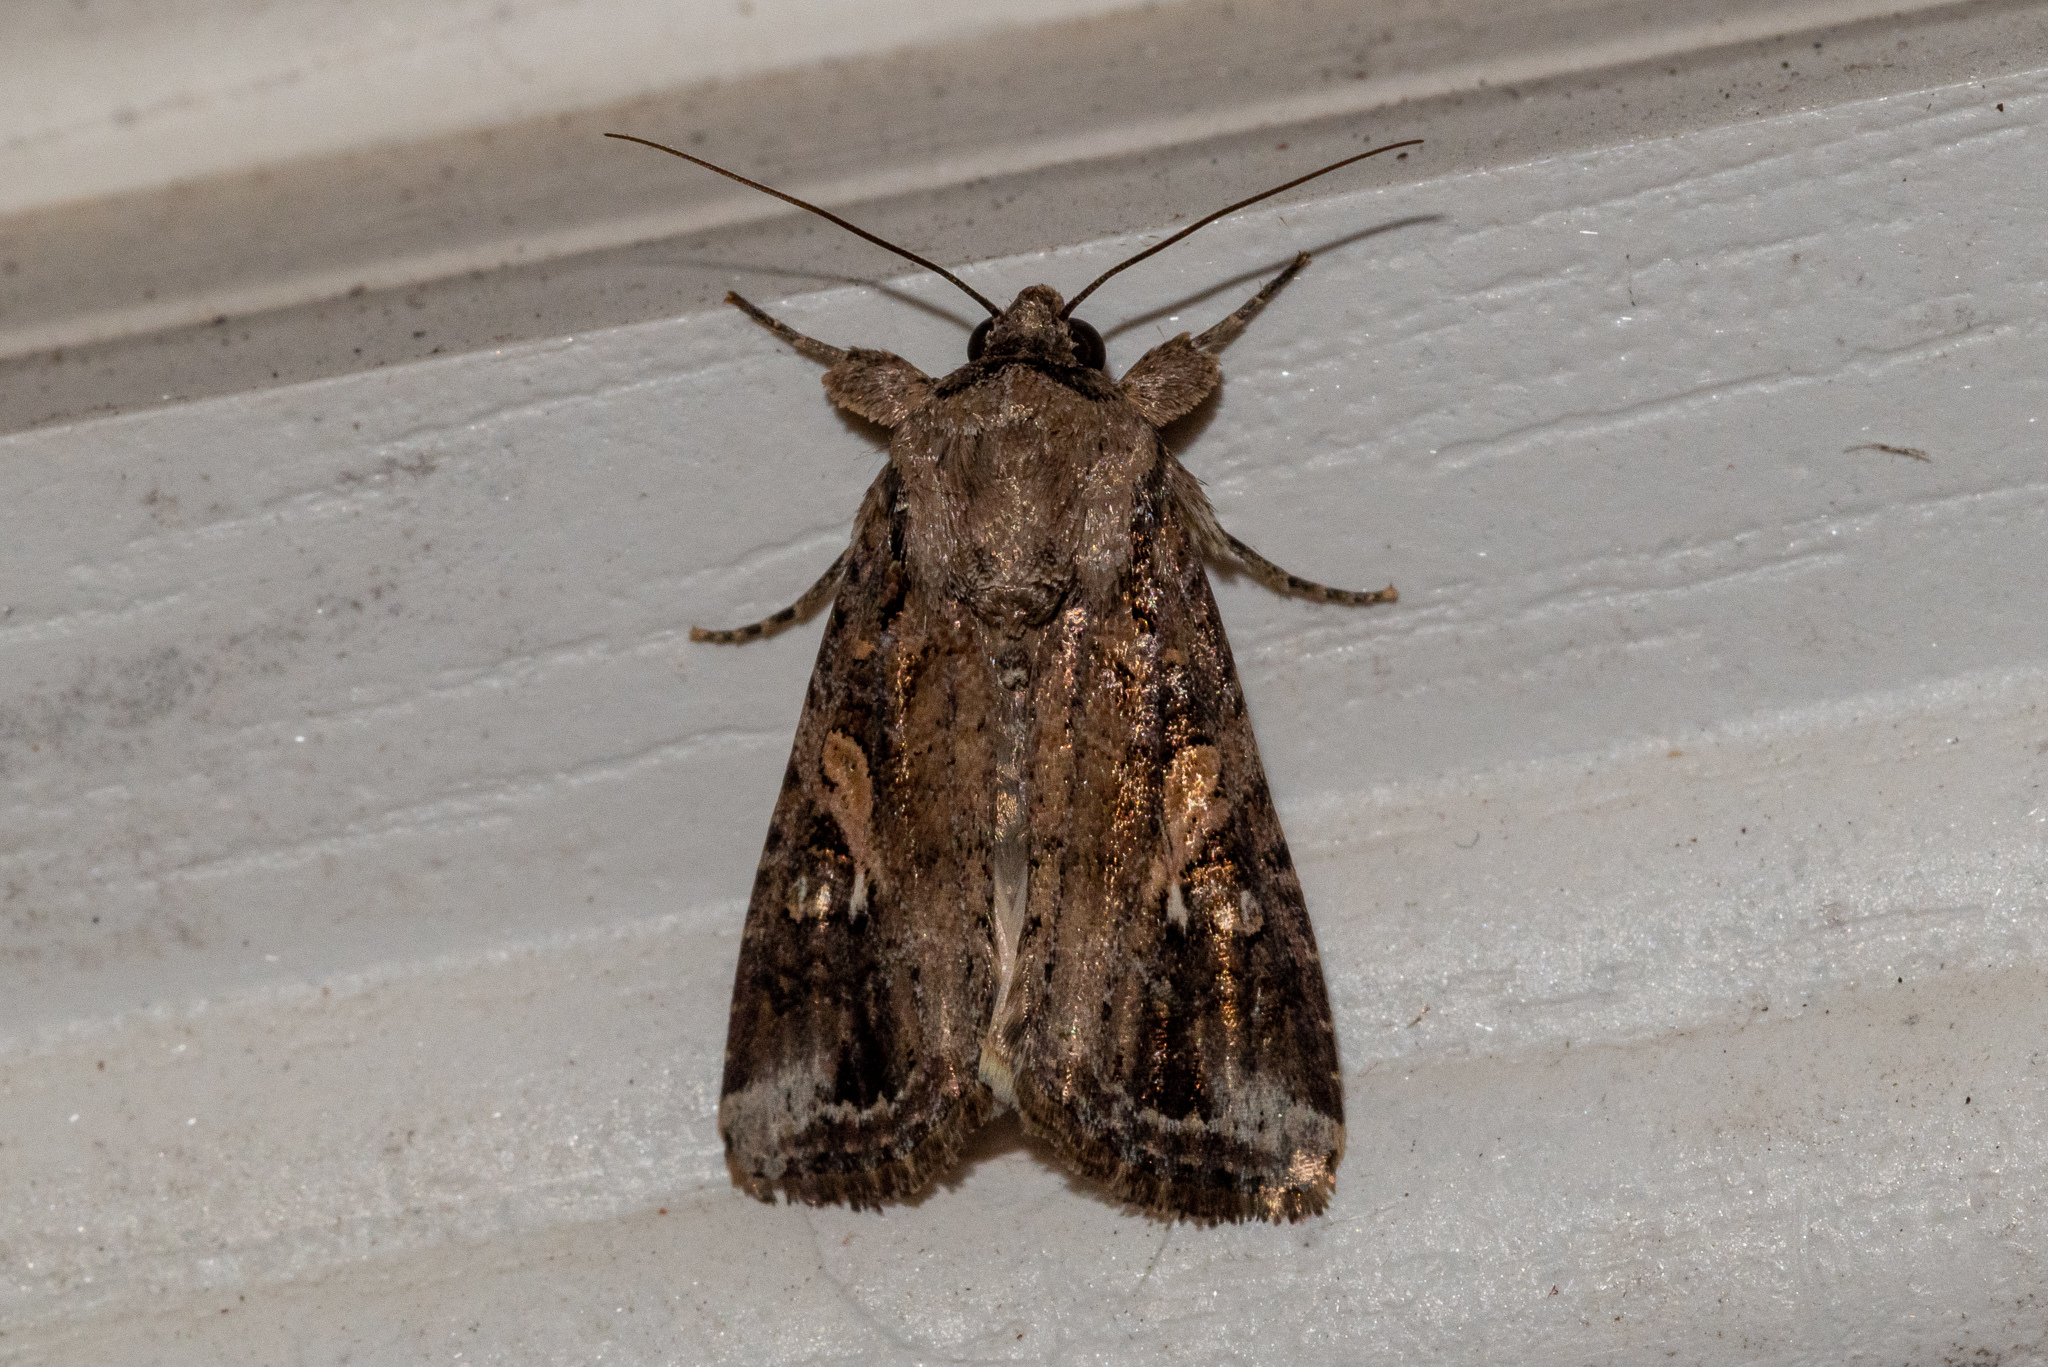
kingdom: Animalia
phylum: Arthropoda
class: Insecta
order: Lepidoptera
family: Noctuidae
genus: Spodoptera
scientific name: Spodoptera frugiperda
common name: Fall armyworm
